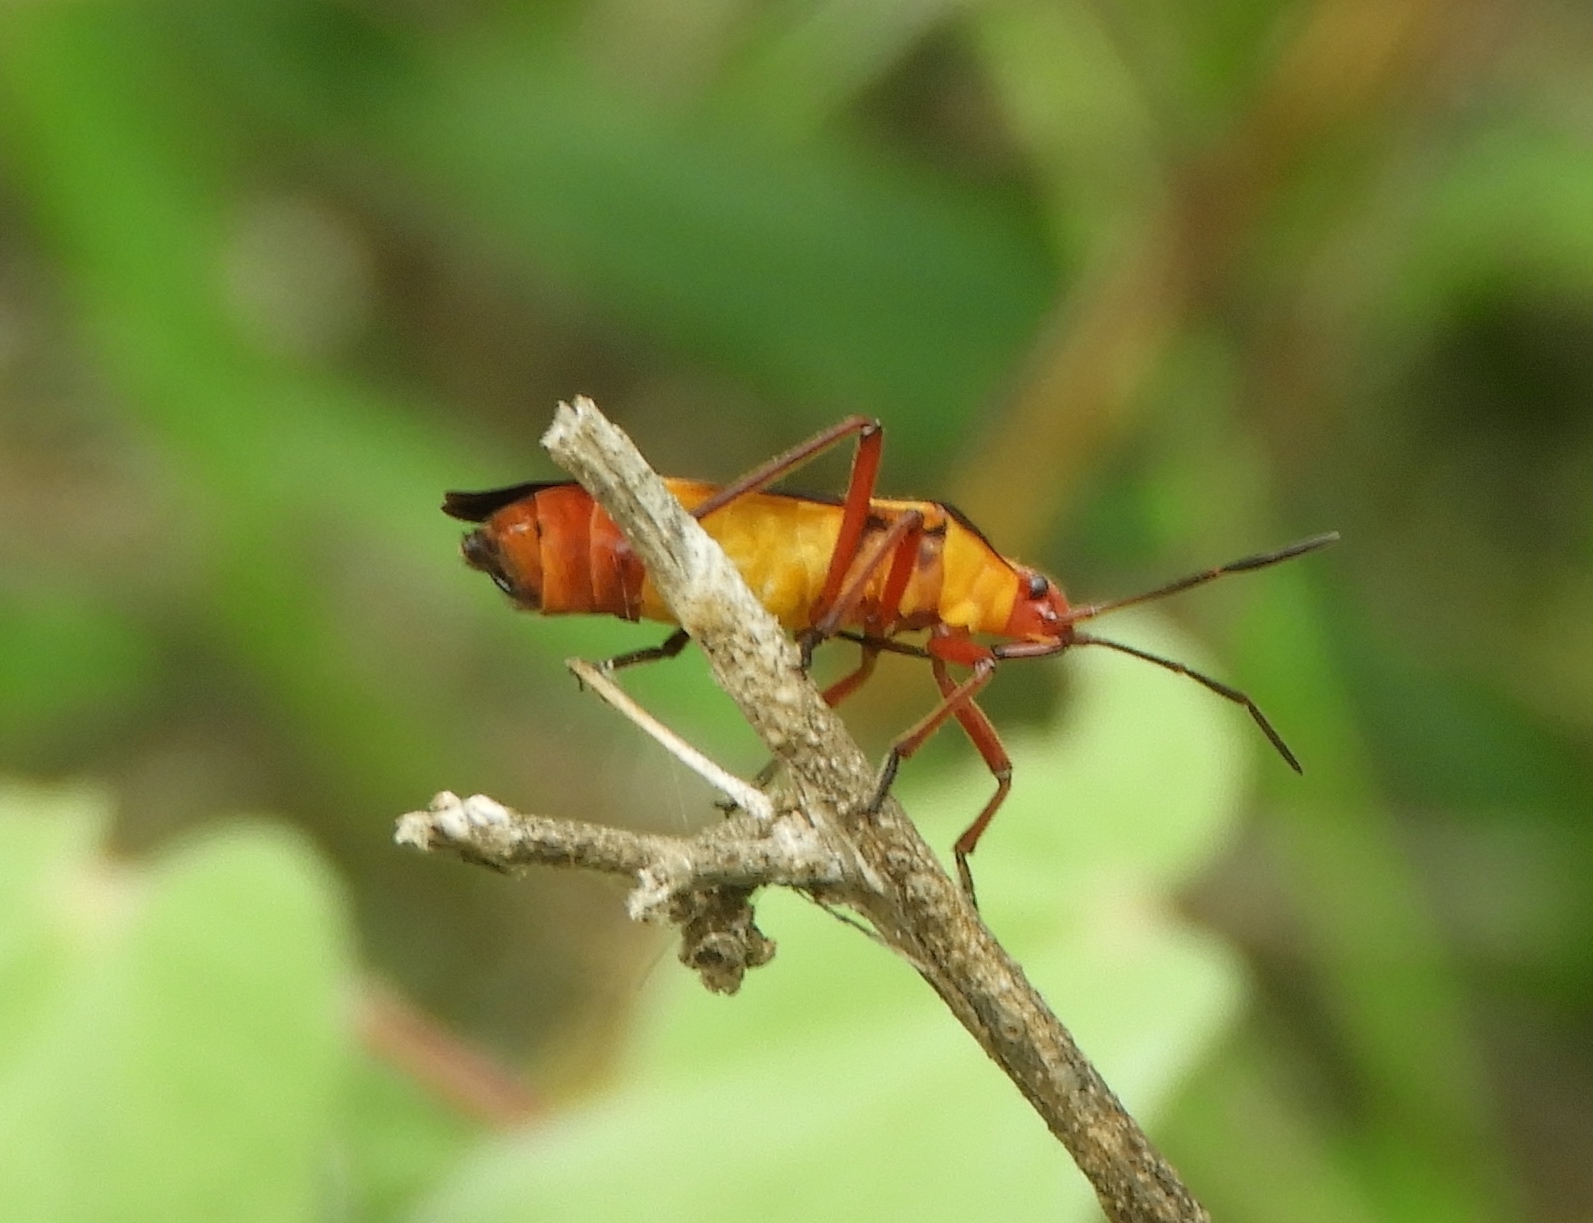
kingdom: Animalia
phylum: Arthropoda
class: Insecta
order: Hemiptera
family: Lygaeidae
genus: Oncopeltus
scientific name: Oncopeltus guttaloides
